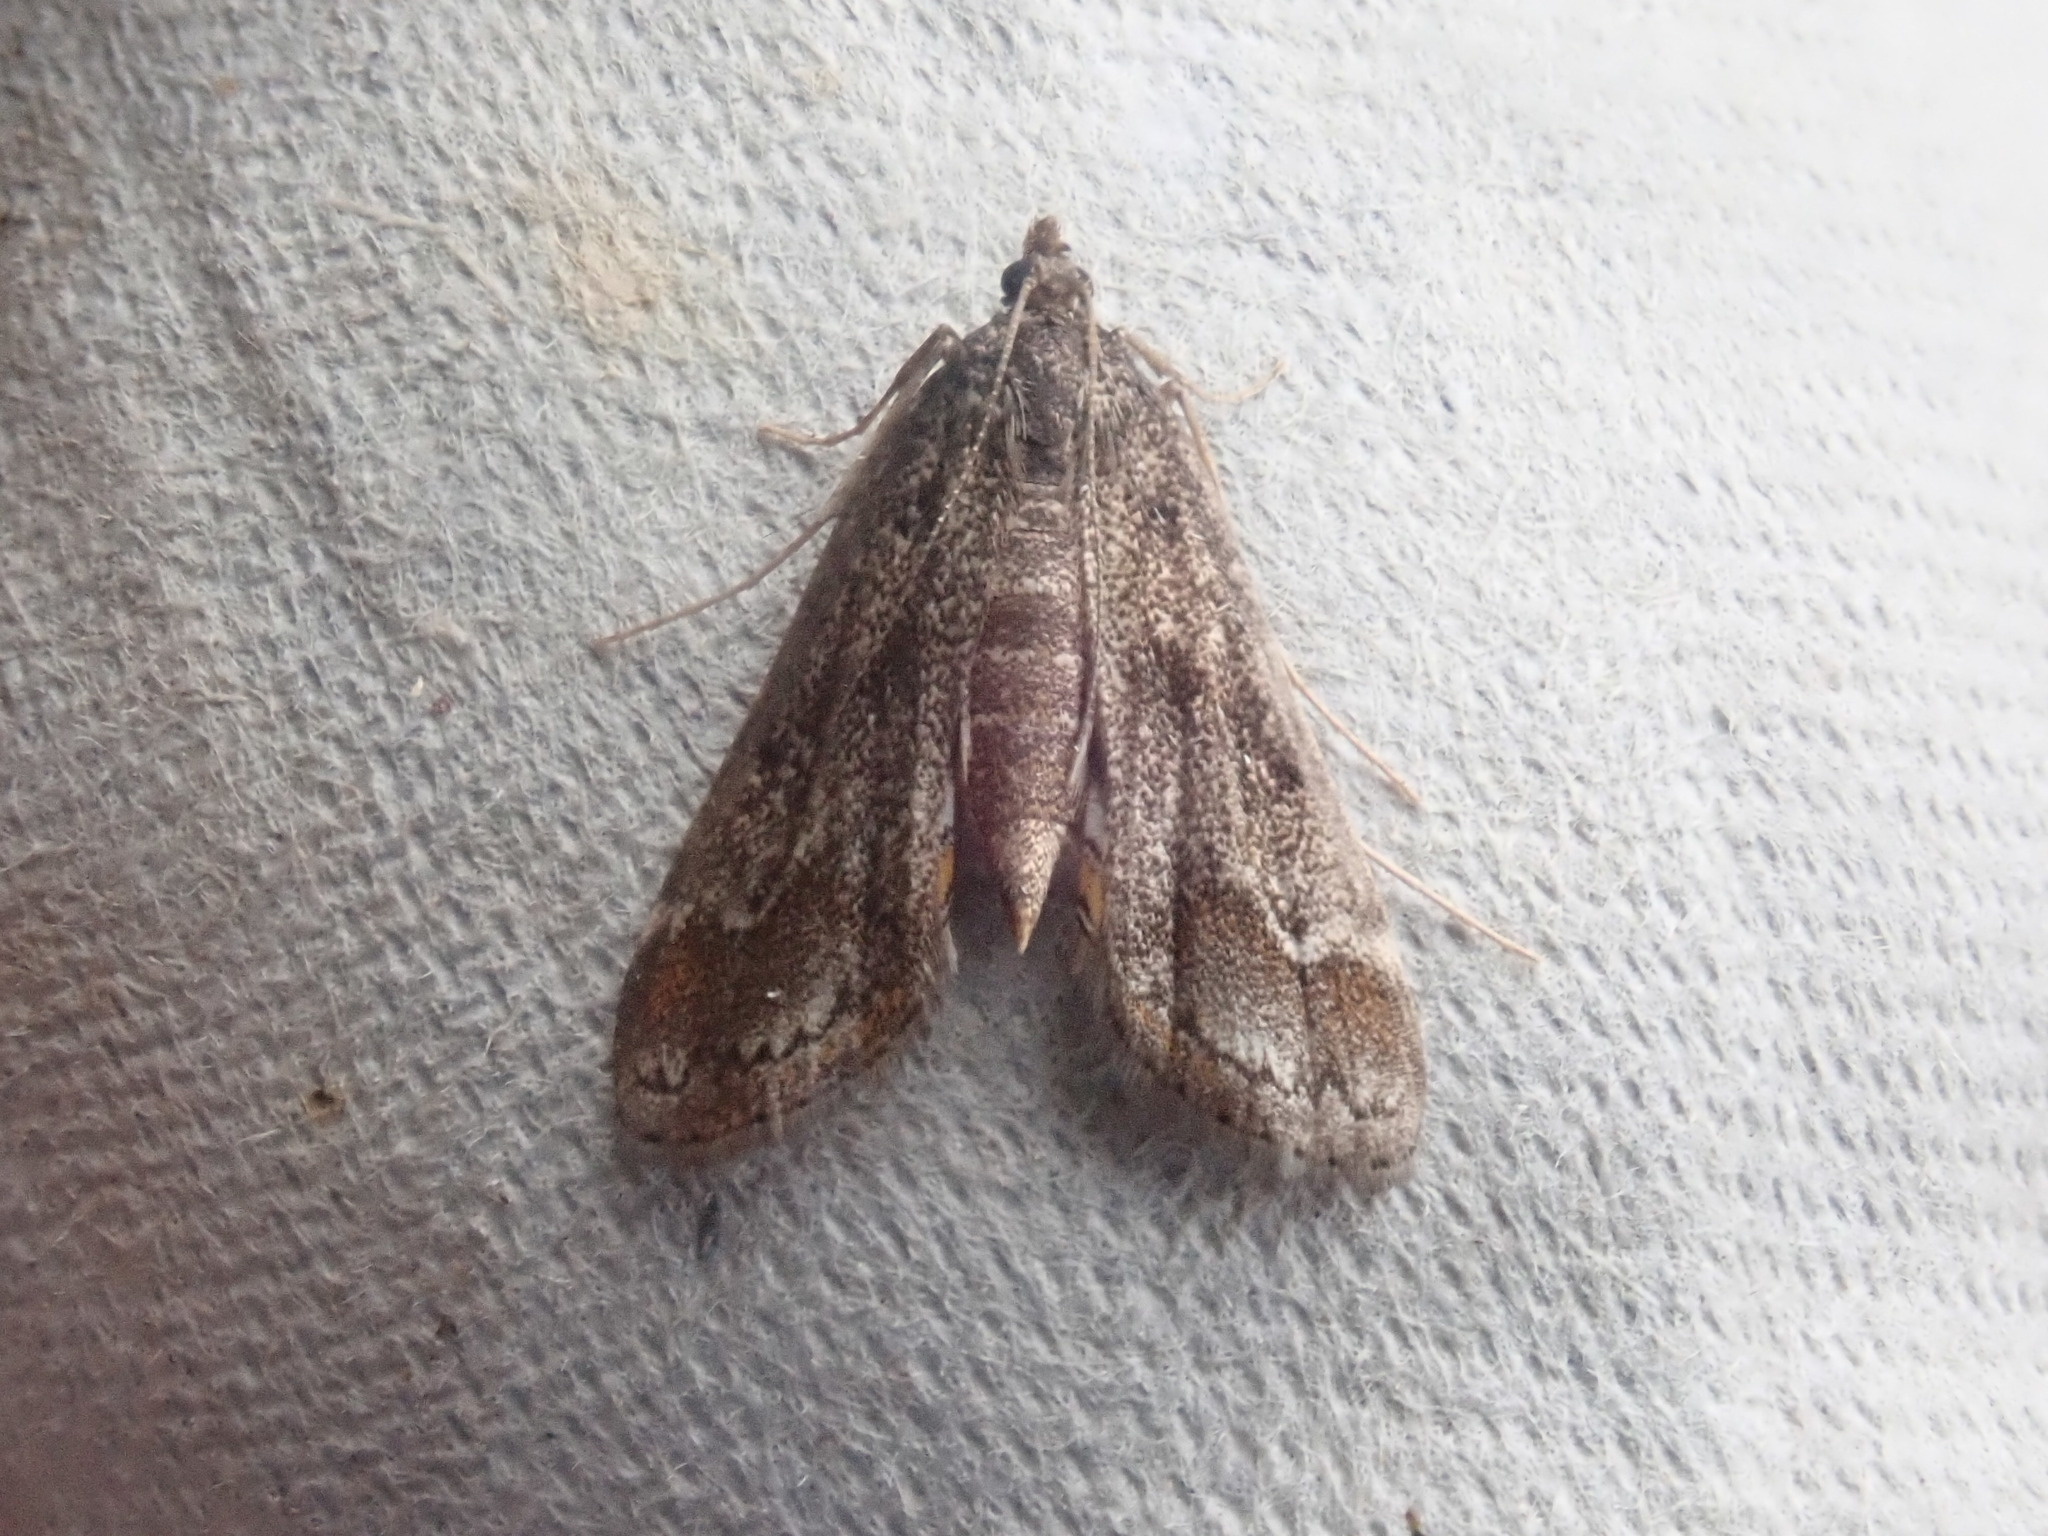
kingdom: Animalia
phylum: Arthropoda
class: Insecta
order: Lepidoptera
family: Crambidae
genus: Parapoynx
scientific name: Parapoynx obscuralis
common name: American china-mark
